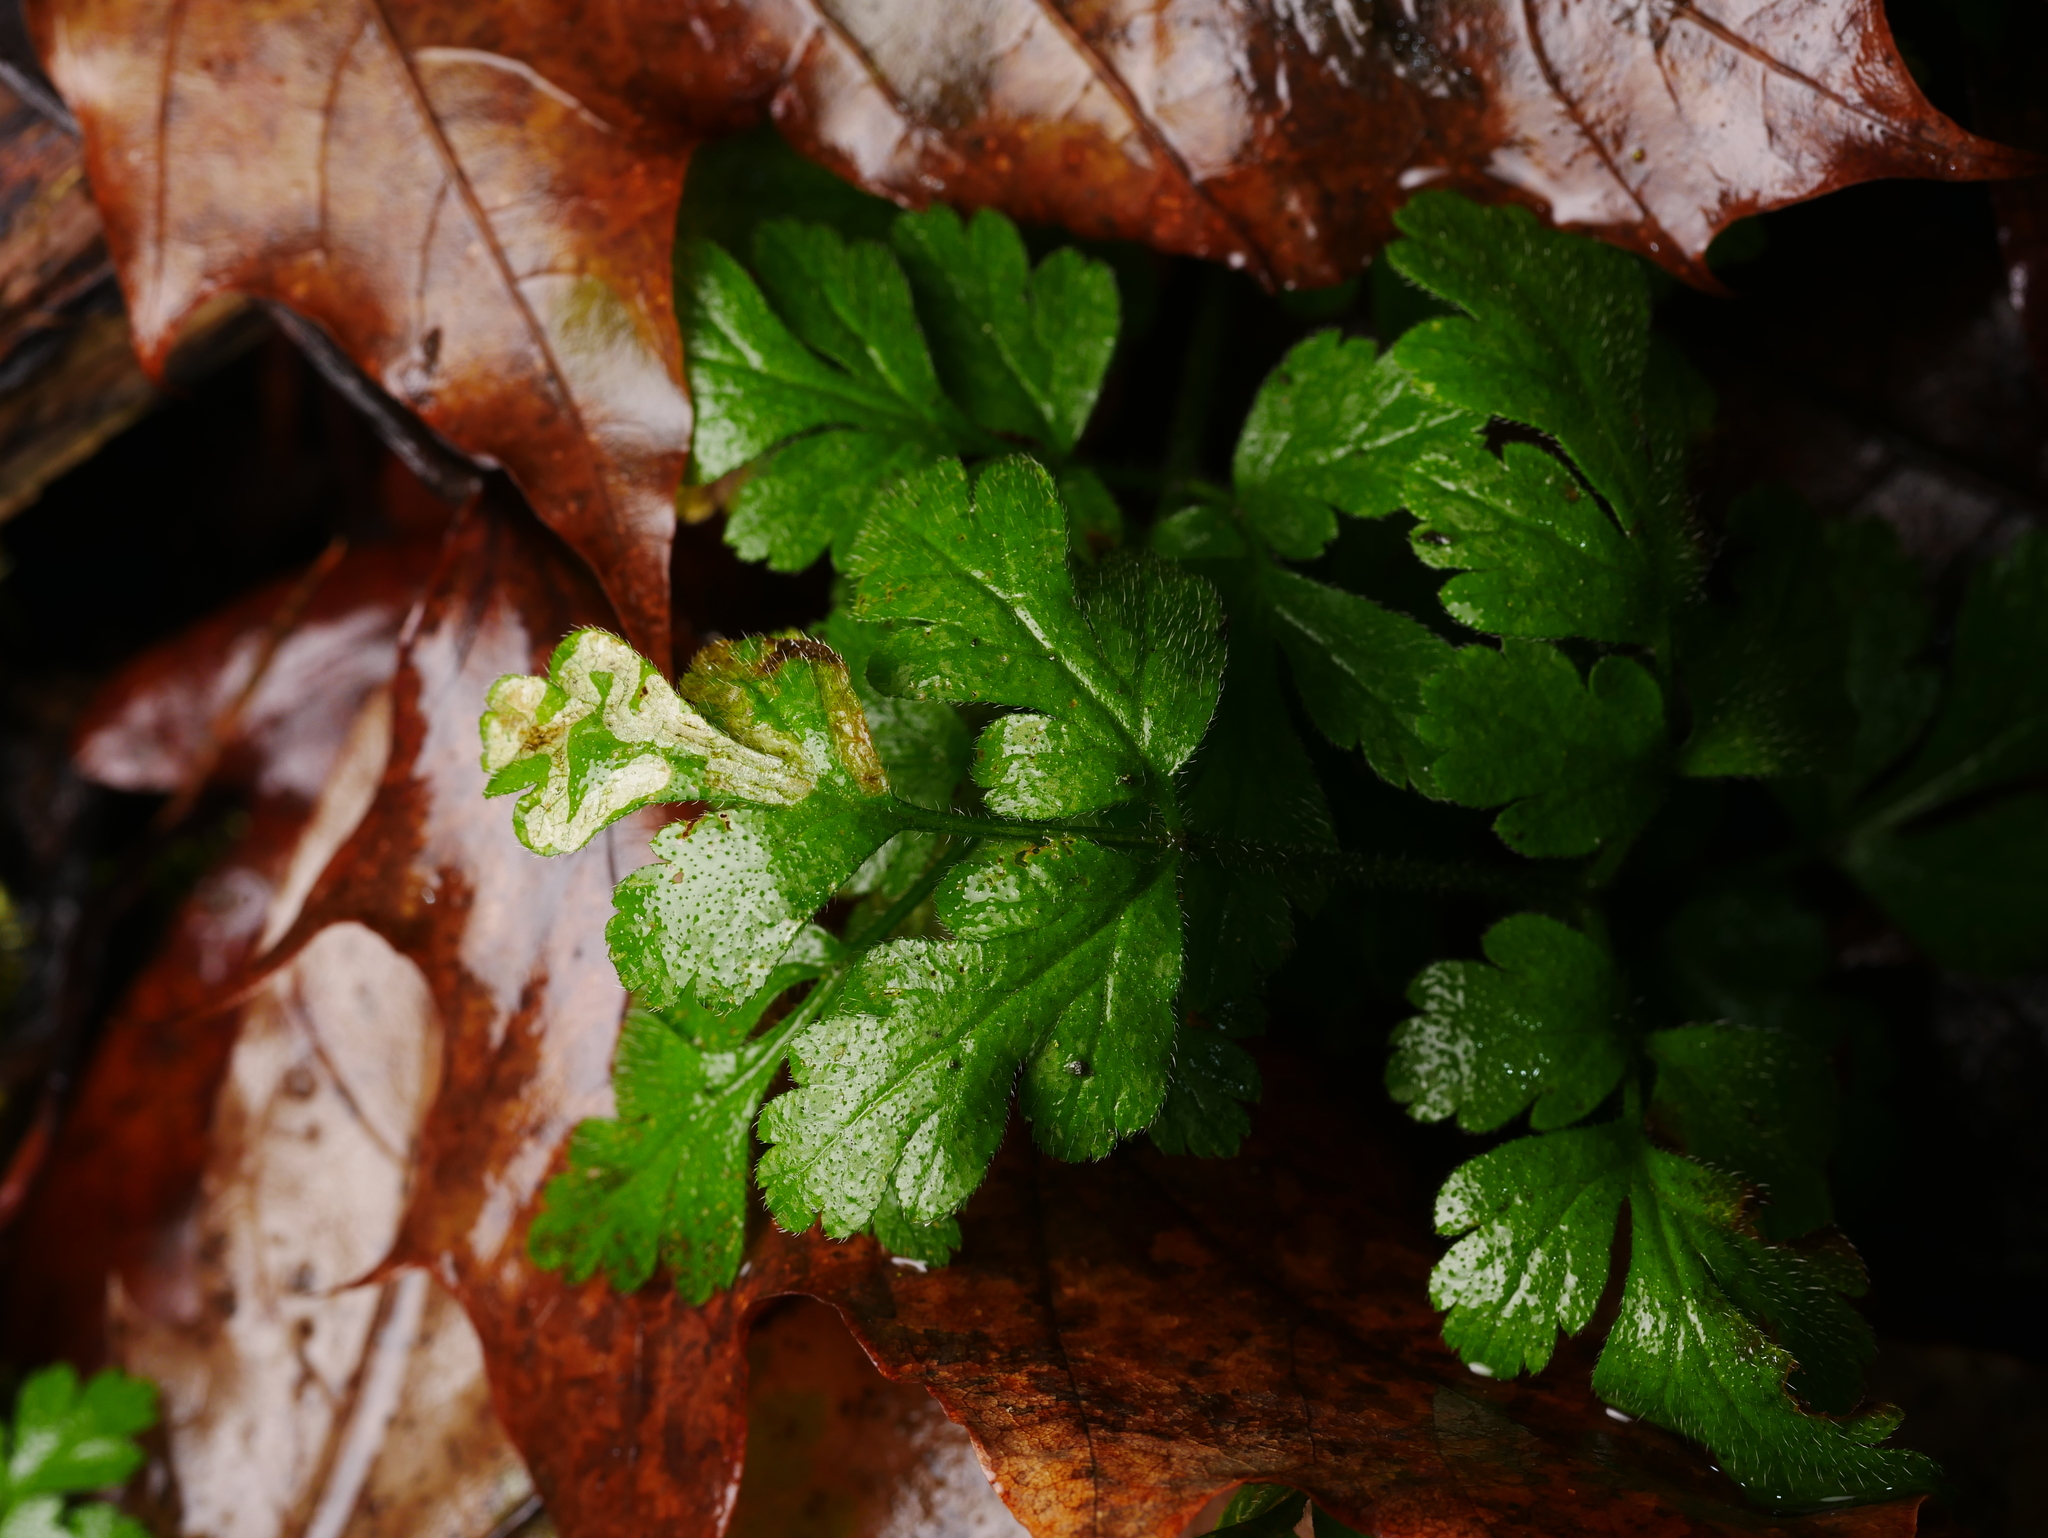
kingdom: Plantae
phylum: Tracheophyta
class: Magnoliopsida
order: Apiales
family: Apiaceae
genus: Chaerophyllum
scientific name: Chaerophyllum temulum
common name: Rough chervil
